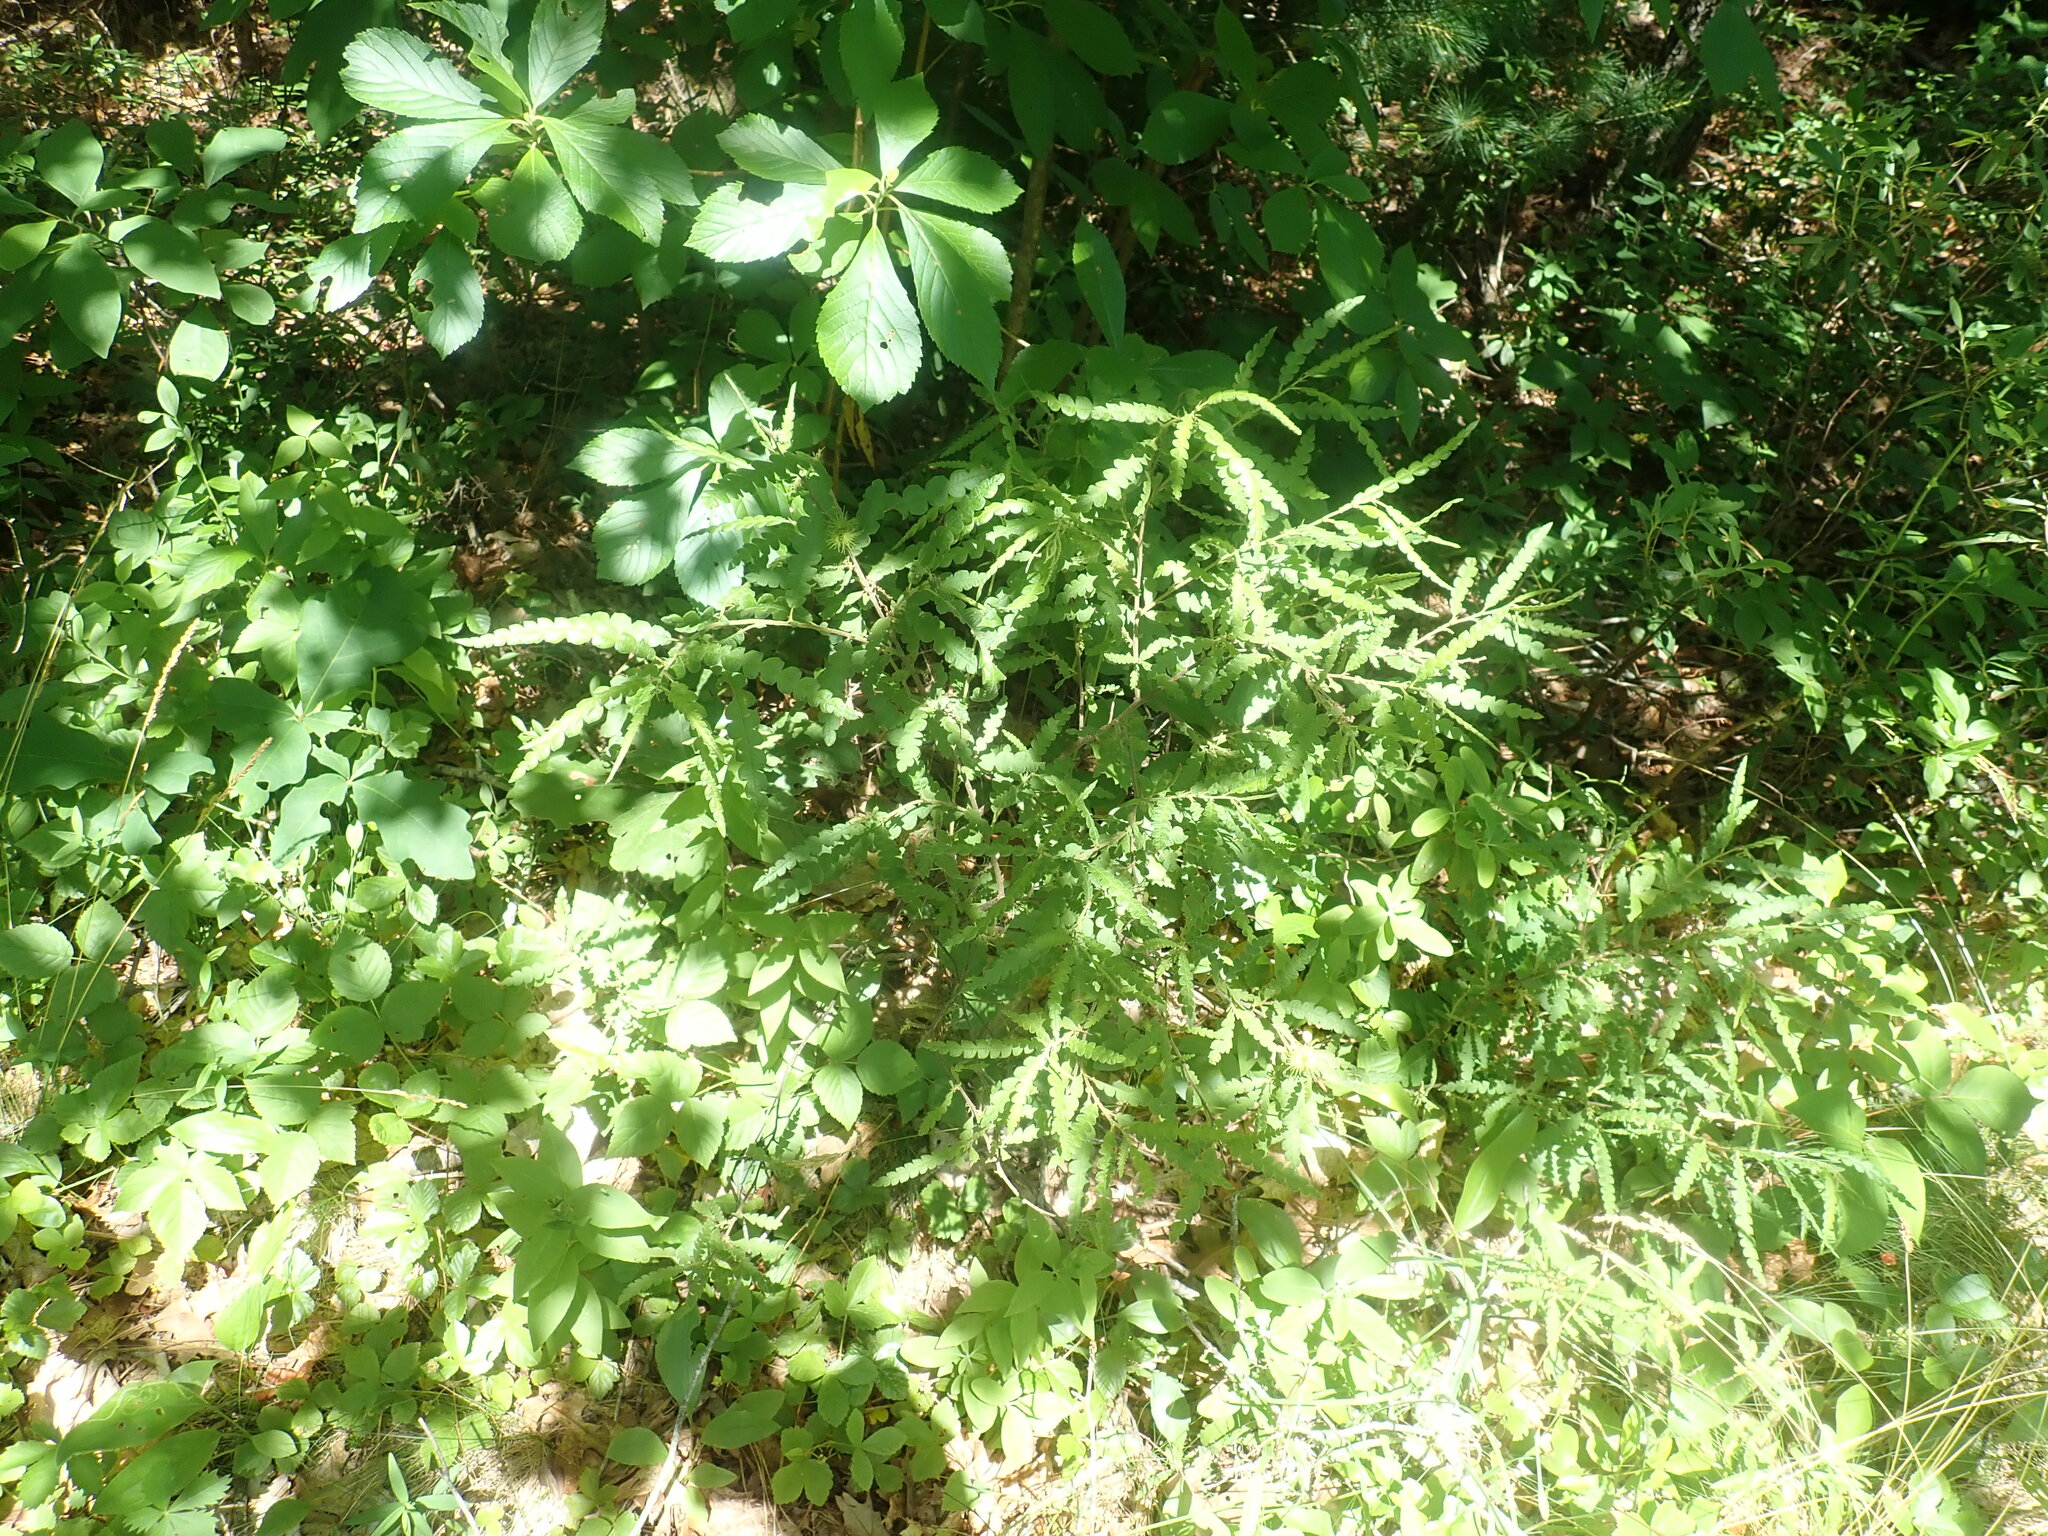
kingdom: Plantae
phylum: Tracheophyta
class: Magnoliopsida
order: Fagales
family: Myricaceae
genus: Comptonia
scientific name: Comptonia peregrina
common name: Sweet-fern
